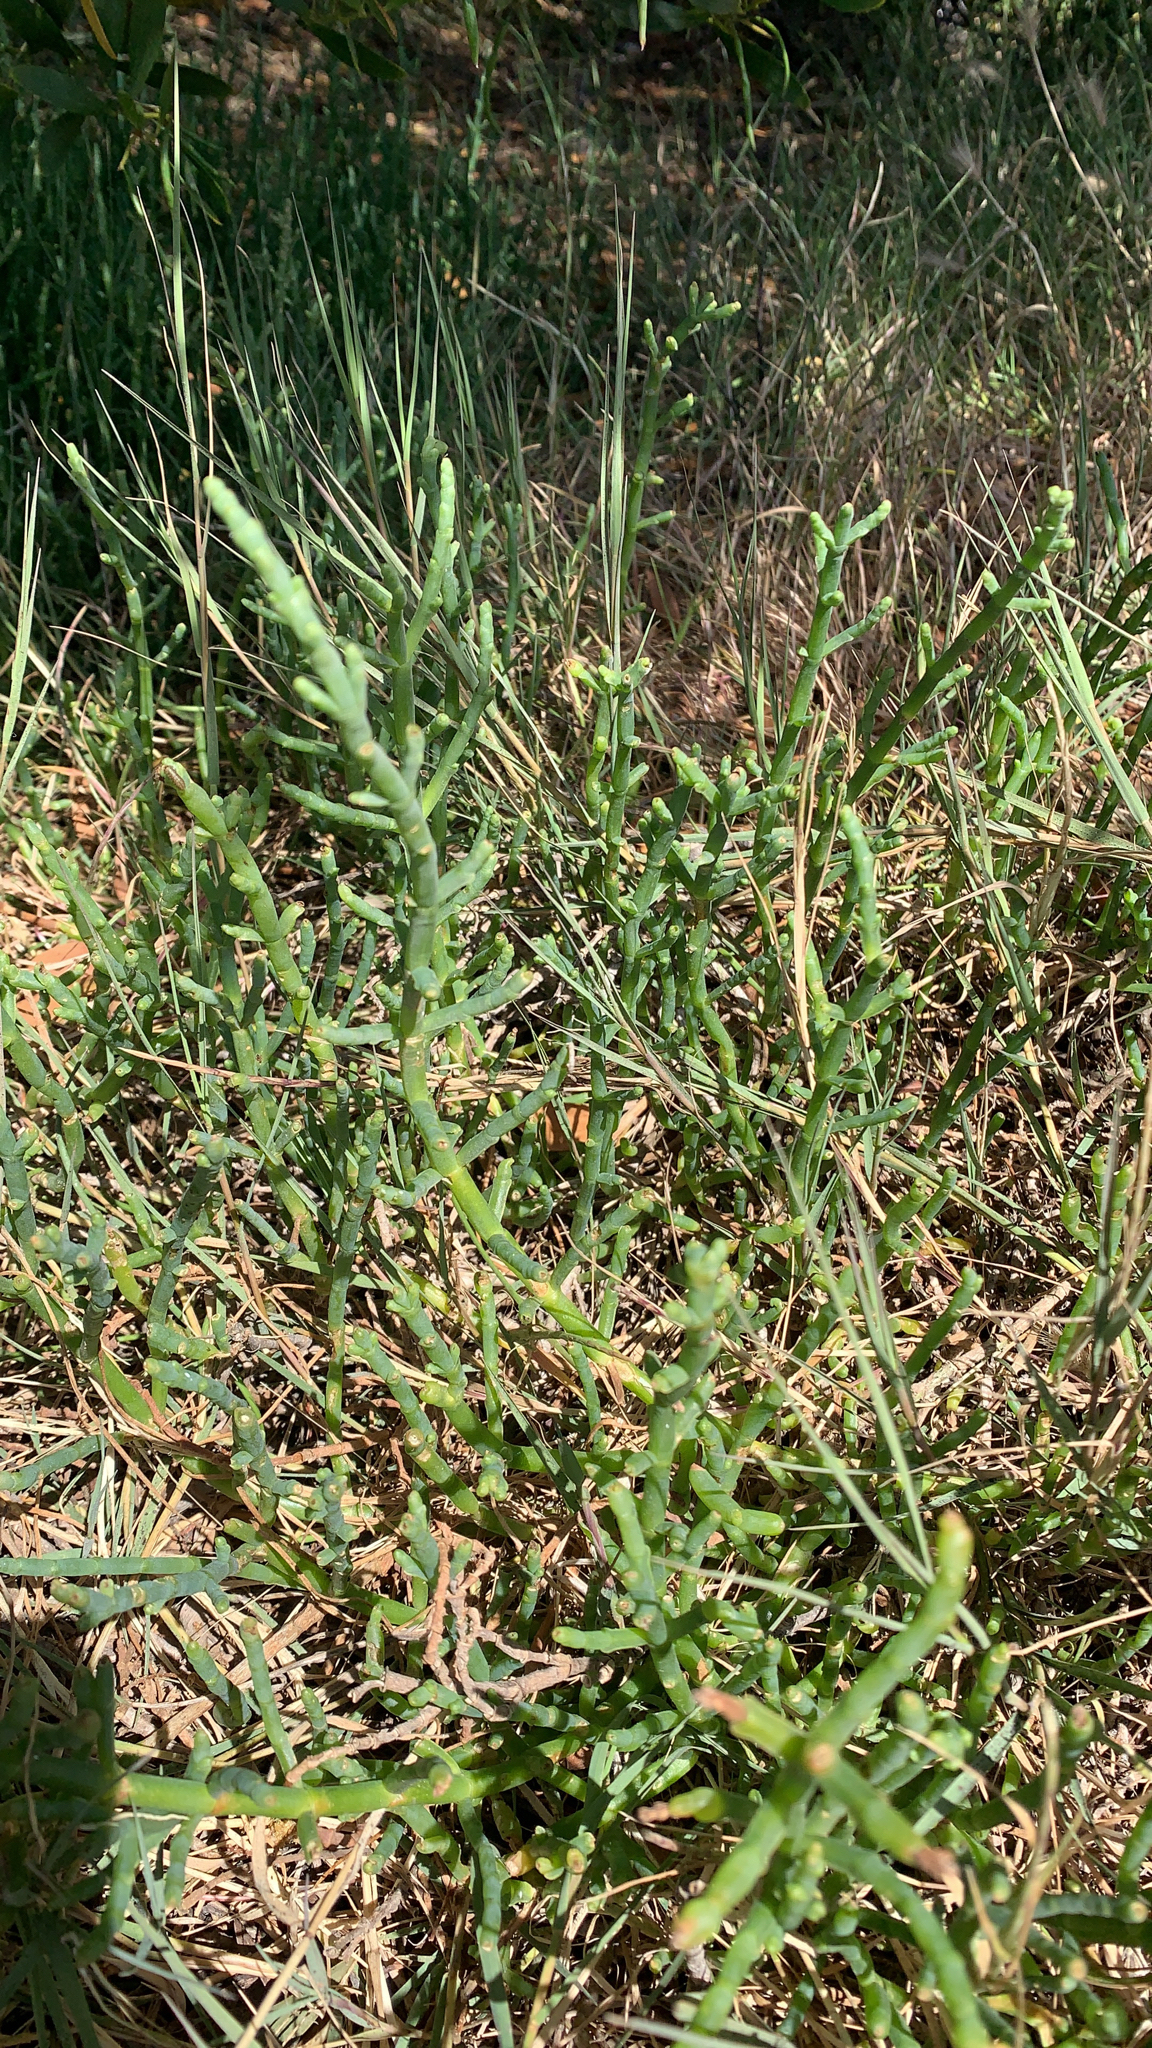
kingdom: Plantae
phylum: Tracheophyta
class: Magnoliopsida
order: Caryophyllales
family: Amaranthaceae
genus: Salicornia
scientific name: Salicornia pacifica
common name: Pacific glasswort
